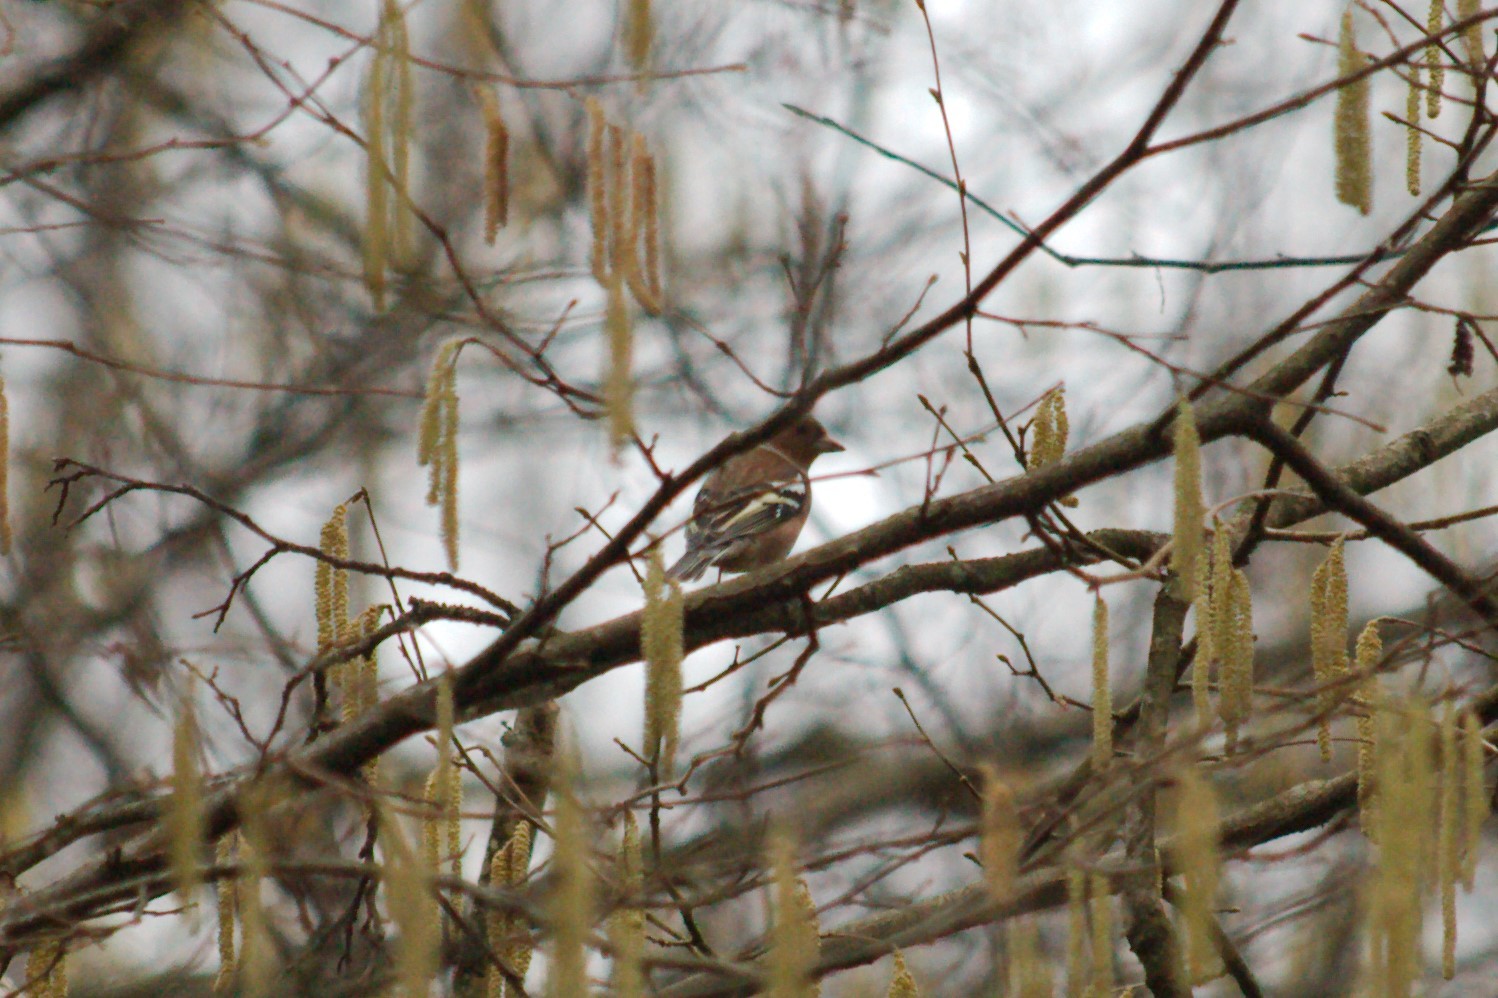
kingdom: Animalia
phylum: Chordata
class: Aves
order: Passeriformes
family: Fringillidae
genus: Fringilla
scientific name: Fringilla coelebs
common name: Common chaffinch
